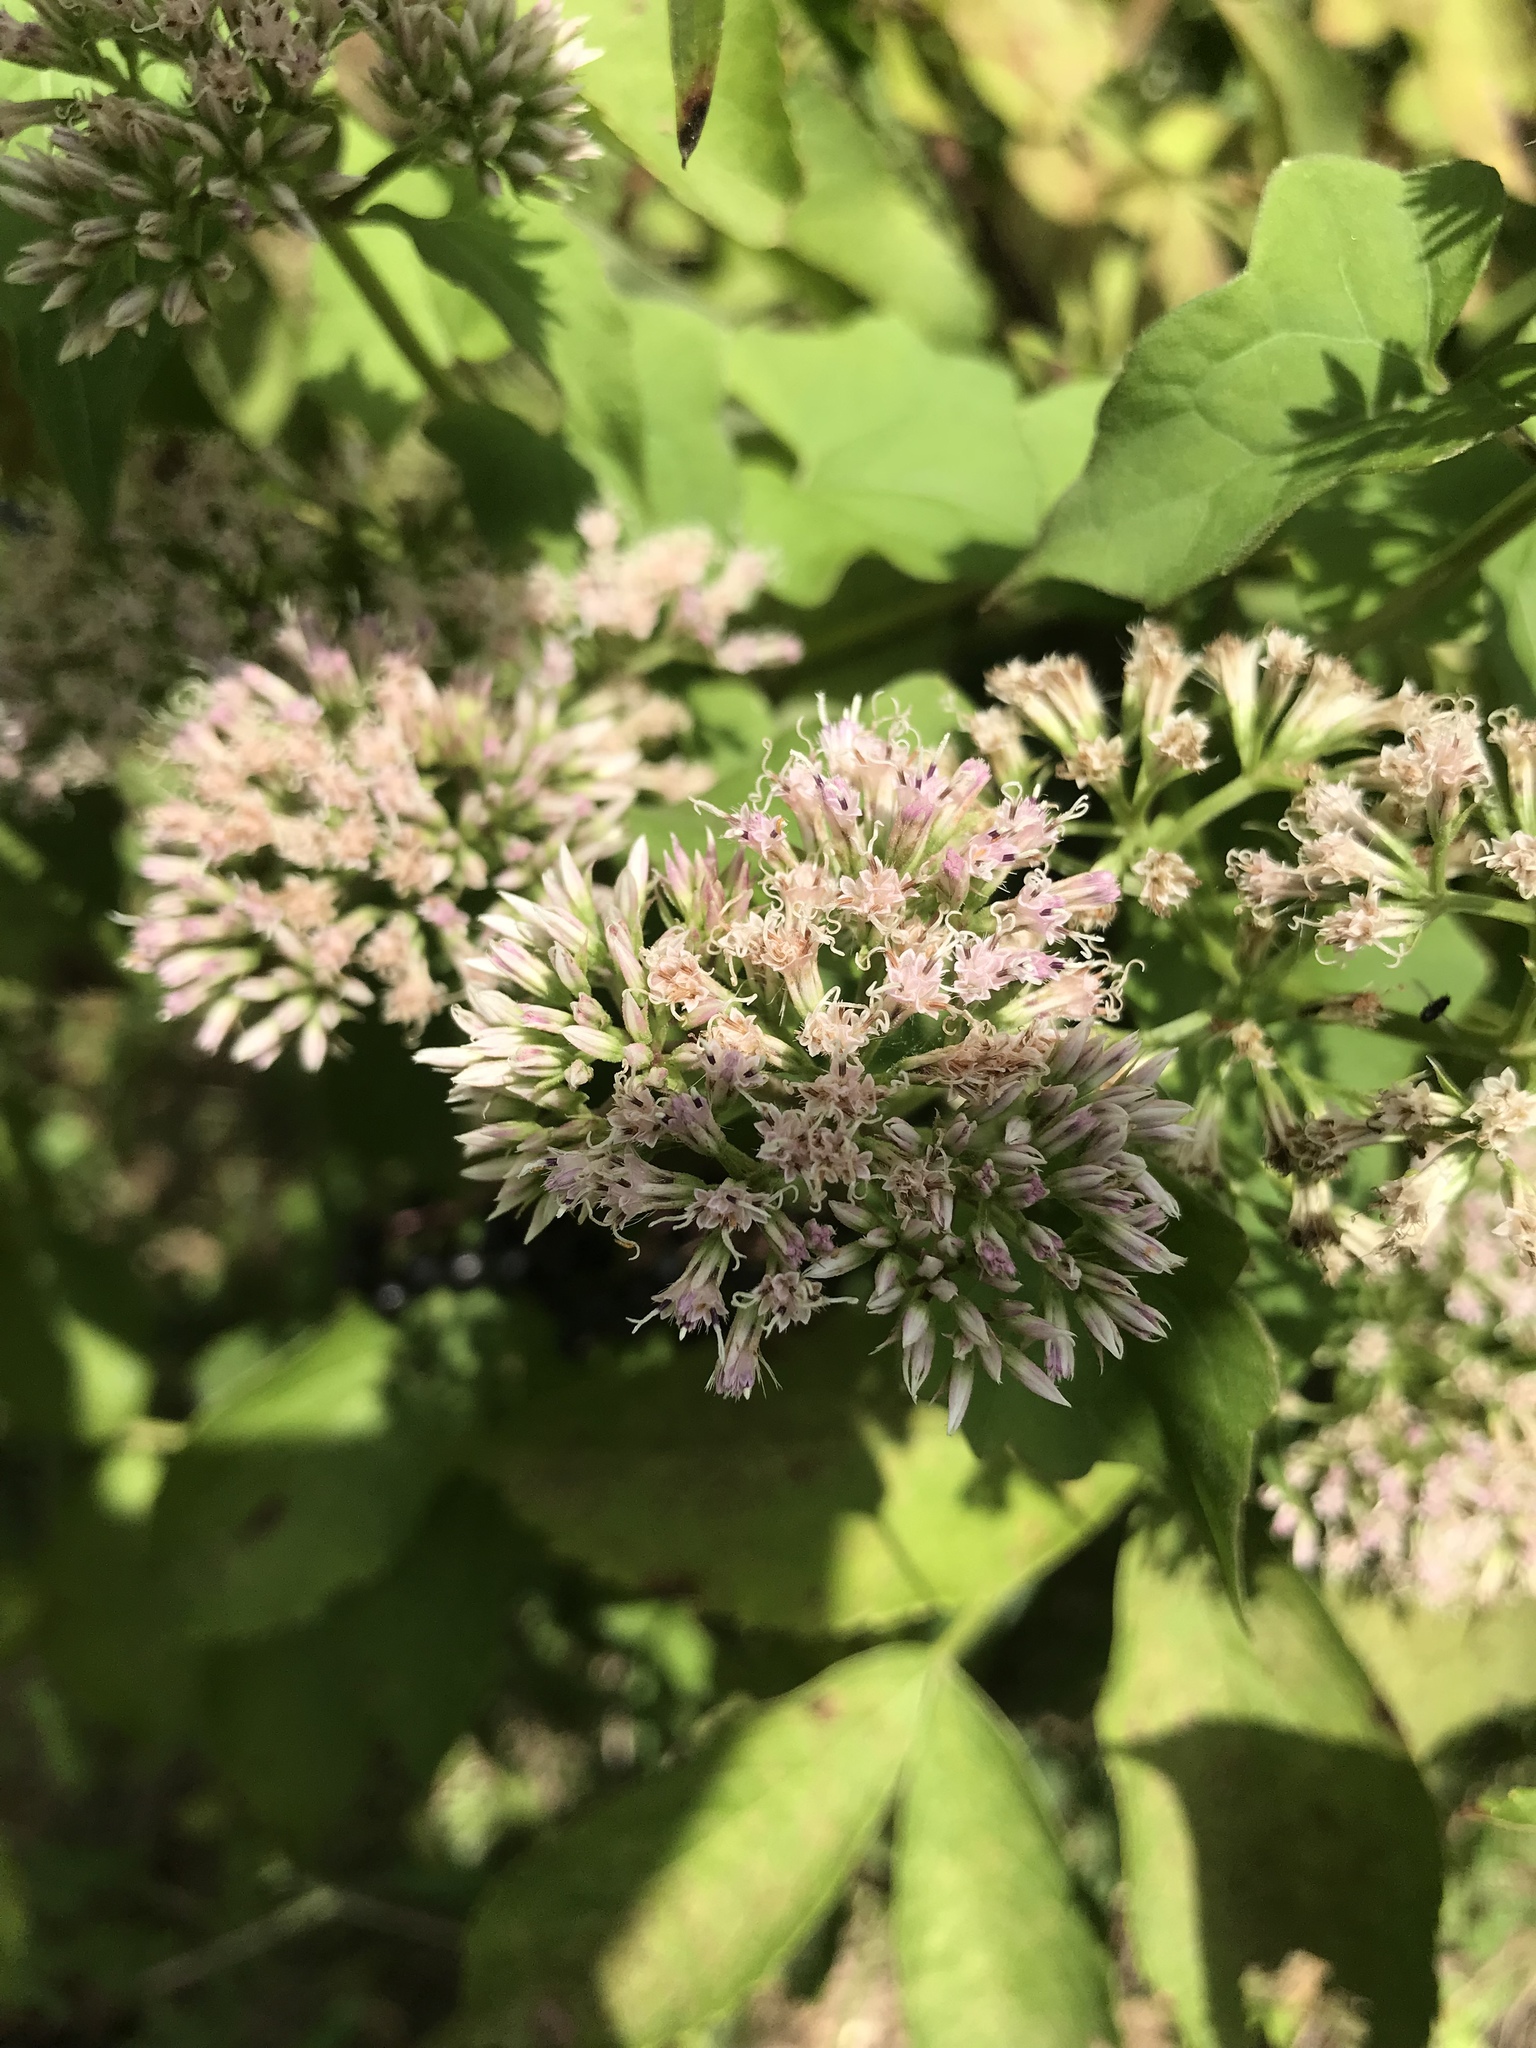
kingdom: Plantae
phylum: Tracheophyta
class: Magnoliopsida
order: Asterales
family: Asteraceae
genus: Mikania
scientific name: Mikania scandens
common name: Climbing hempvine
